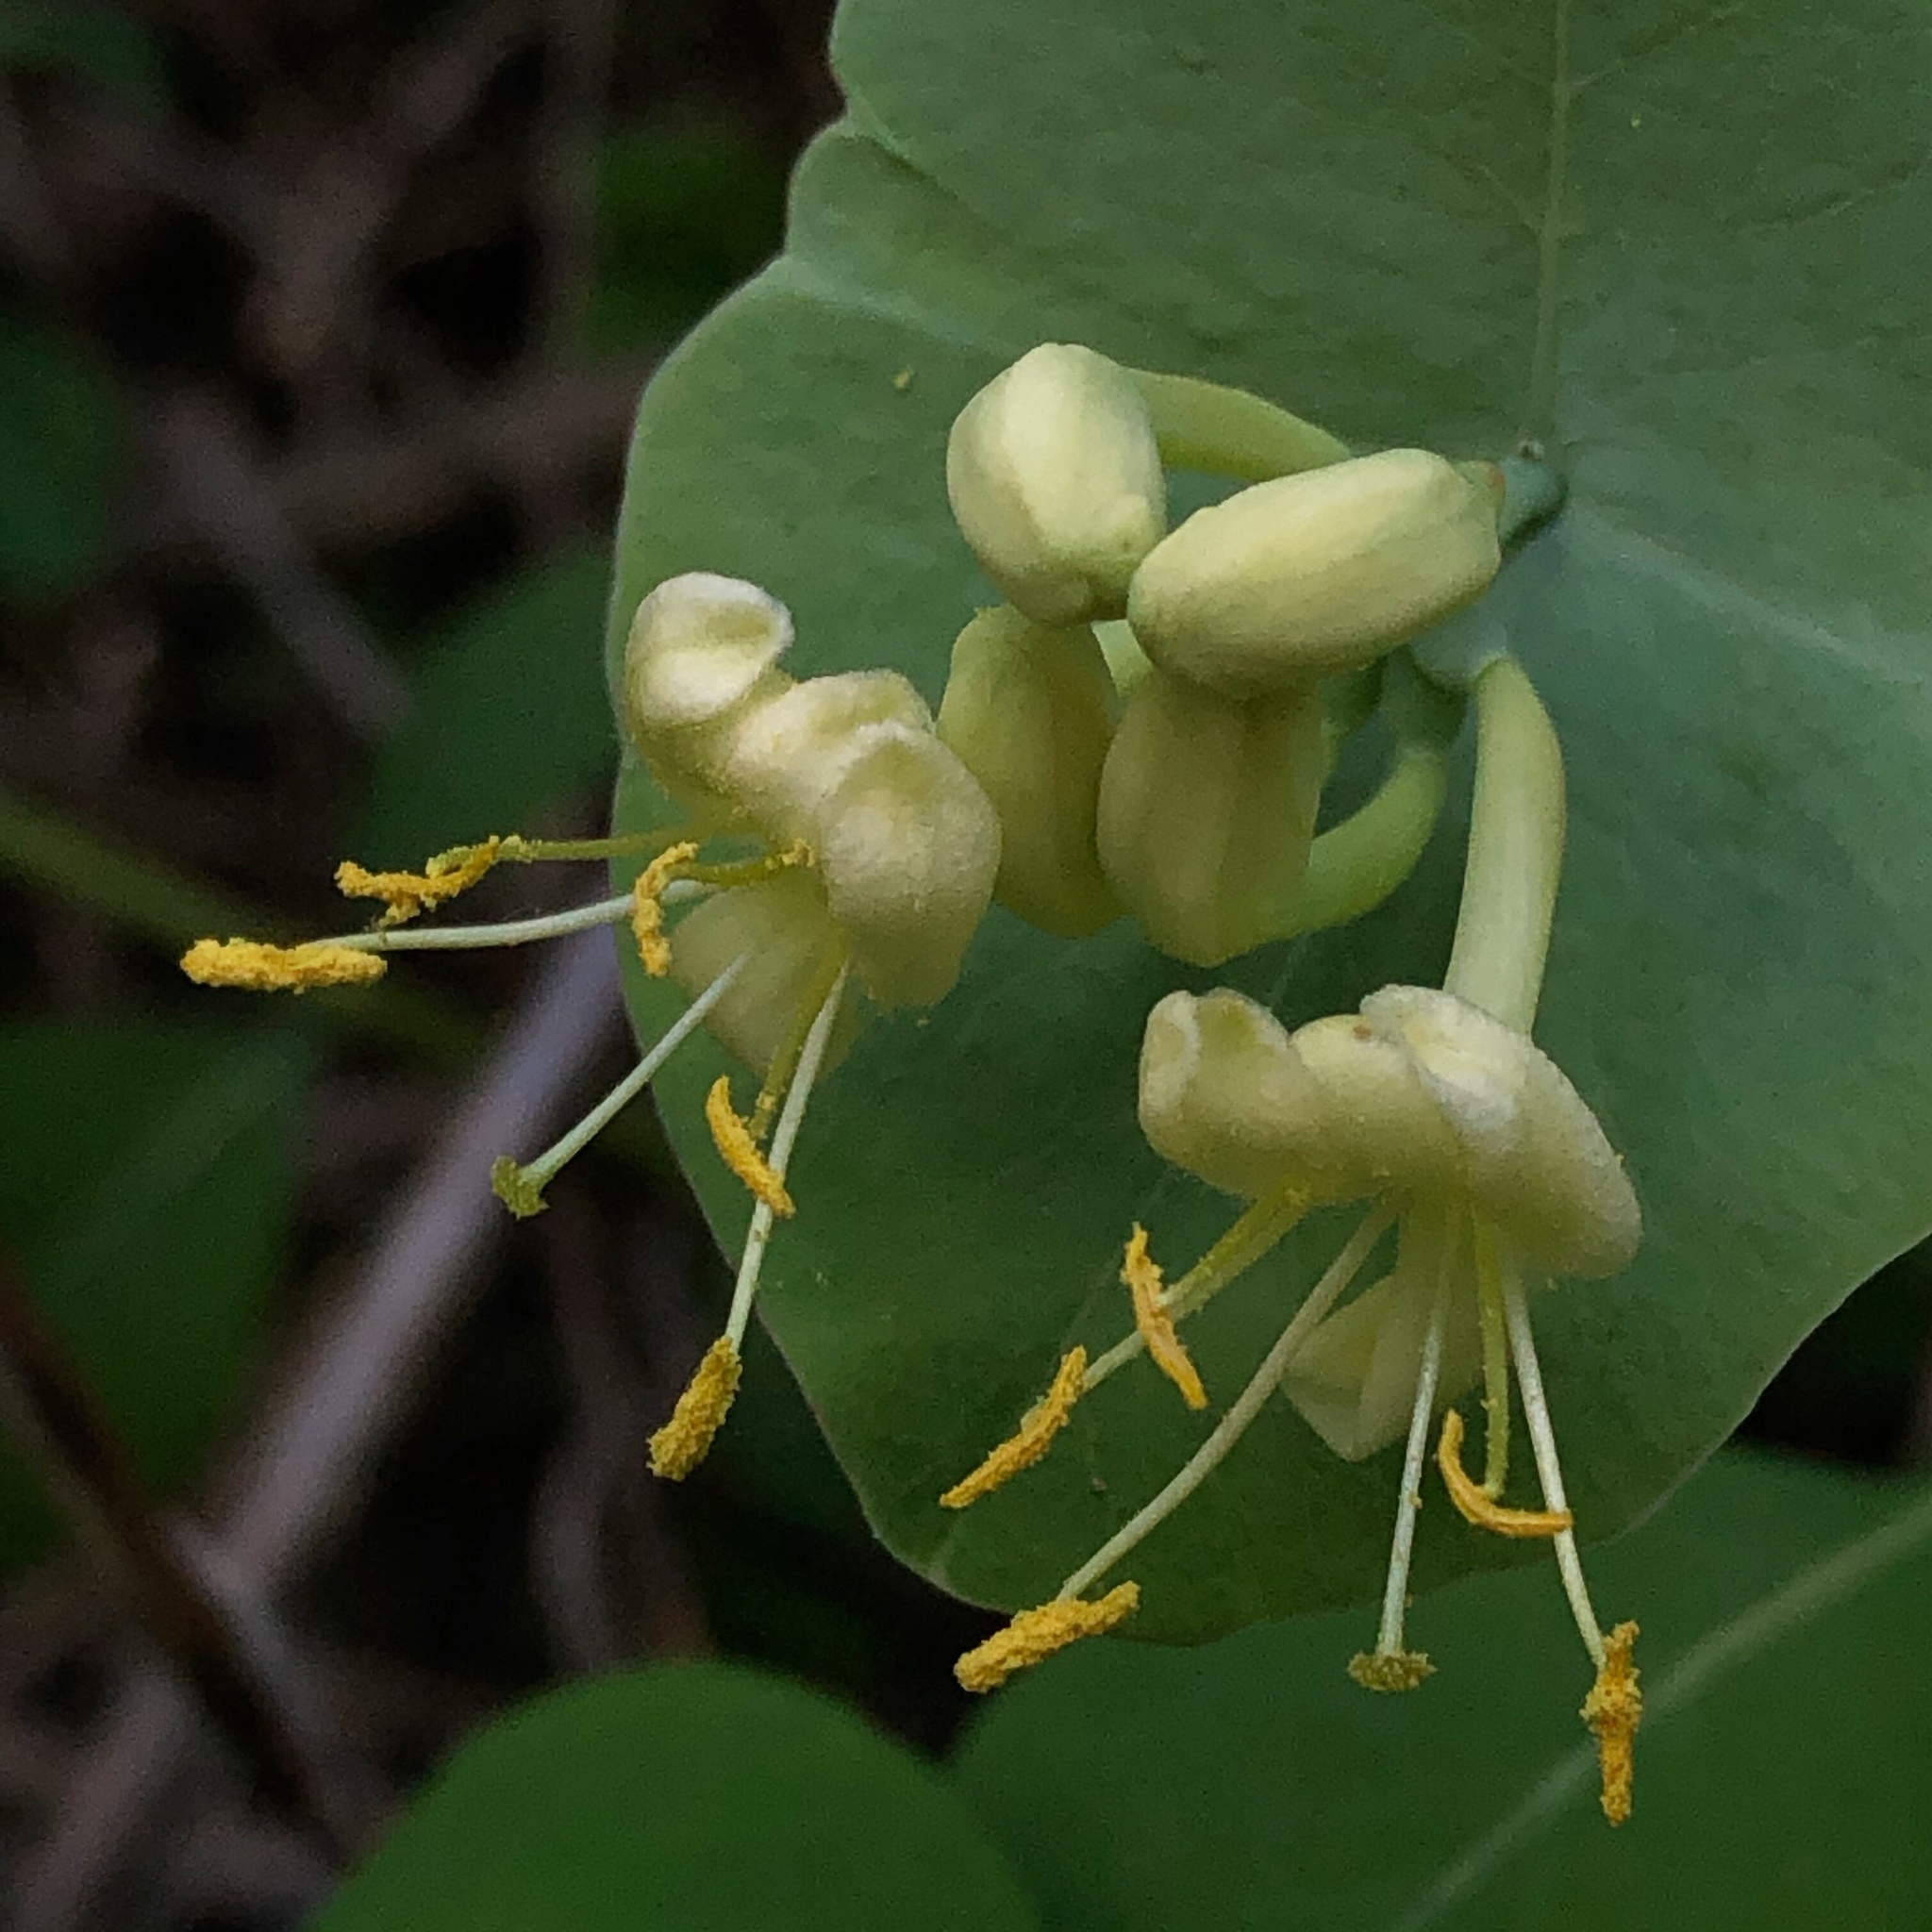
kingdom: Plantae
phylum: Tracheophyta
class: Magnoliopsida
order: Dipsacales
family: Caprifoliaceae
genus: Lonicera
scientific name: Lonicera reticulata
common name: Grape honeysuckle
